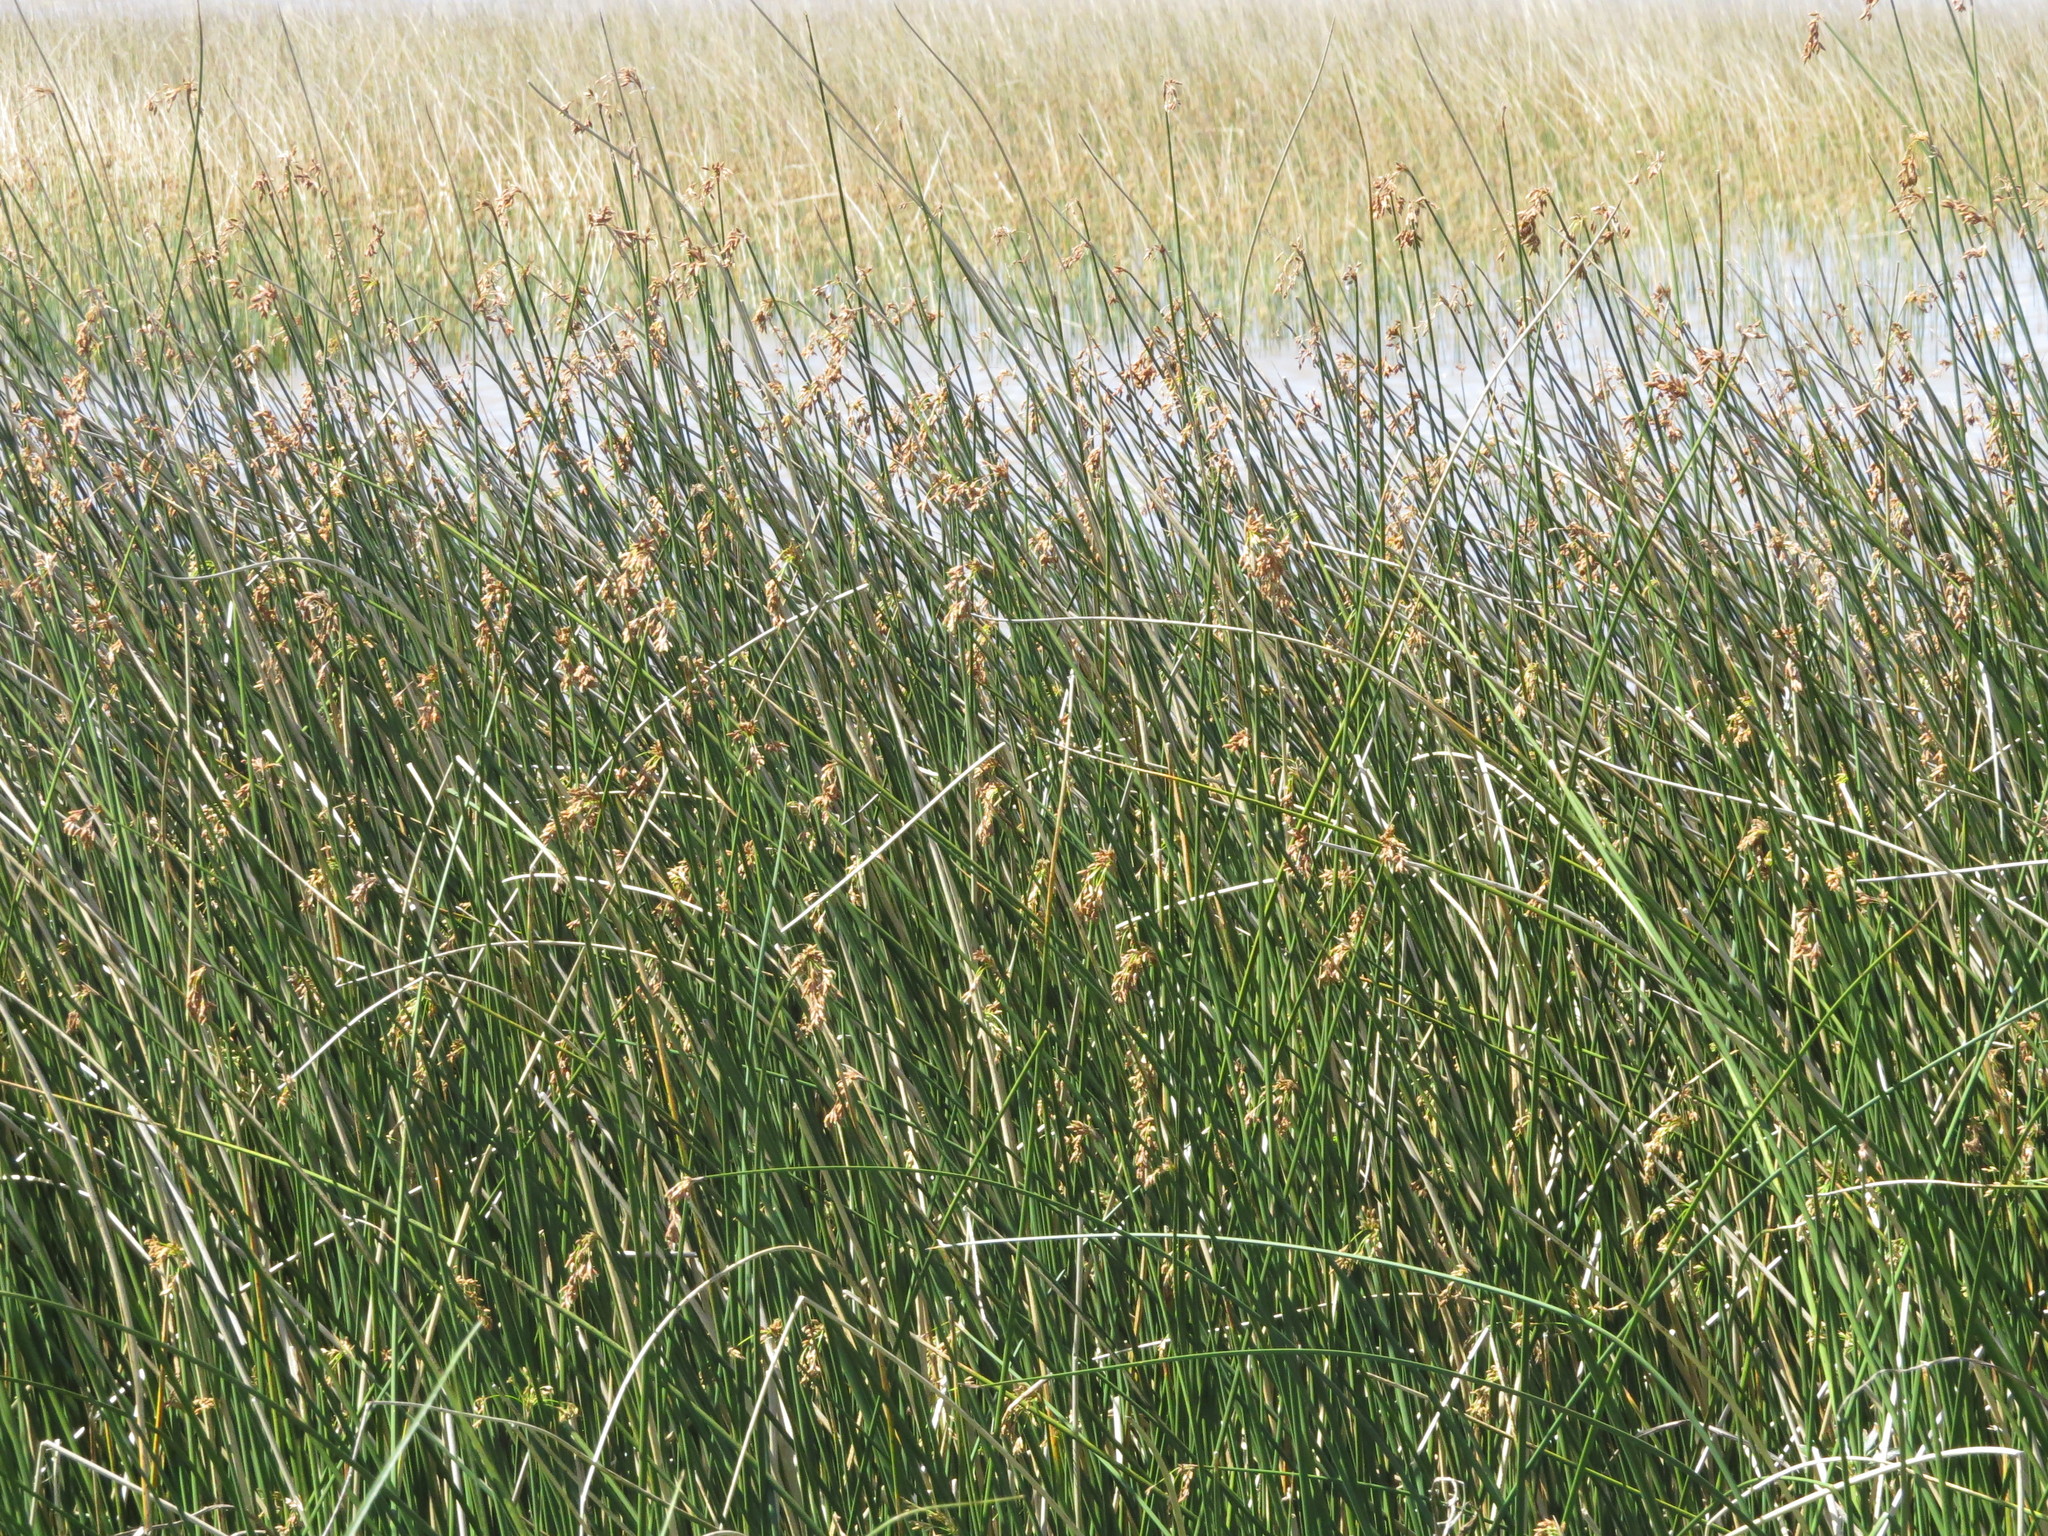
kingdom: Plantae
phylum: Tracheophyta
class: Liliopsida
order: Poales
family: Cyperaceae
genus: Schoenoplectus
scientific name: Schoenoplectus californicus
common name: California bulrush
